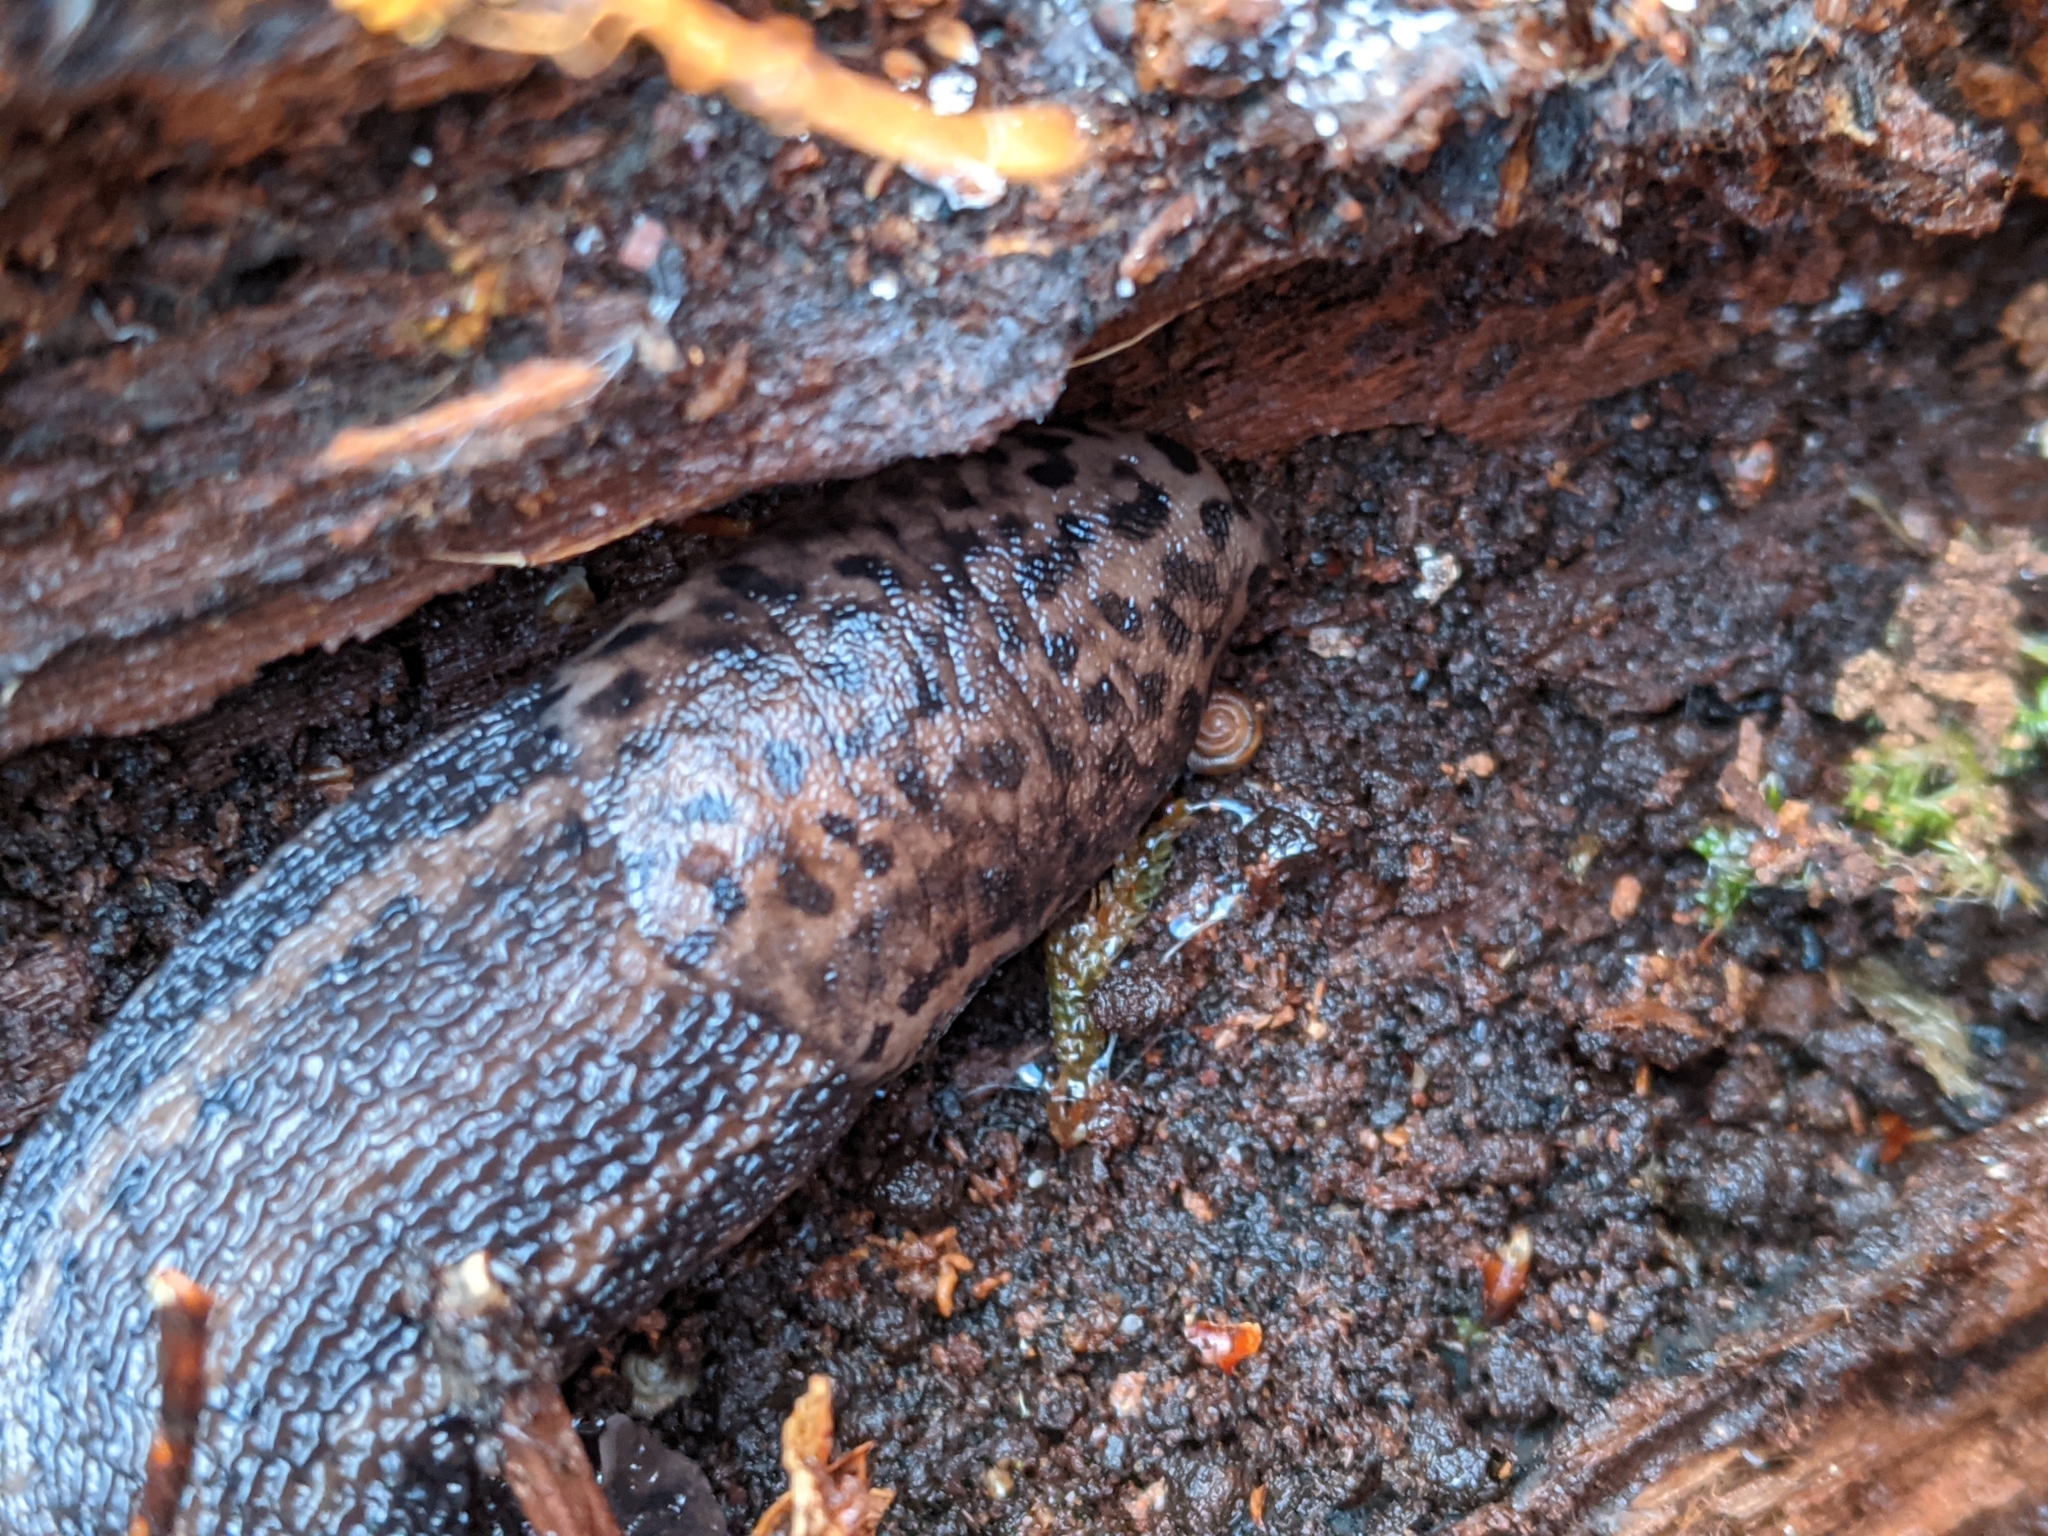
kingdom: Animalia
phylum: Mollusca
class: Gastropoda
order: Stylommatophora
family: Limacidae
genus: Limax
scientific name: Limax maximus
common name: Great grey slug
